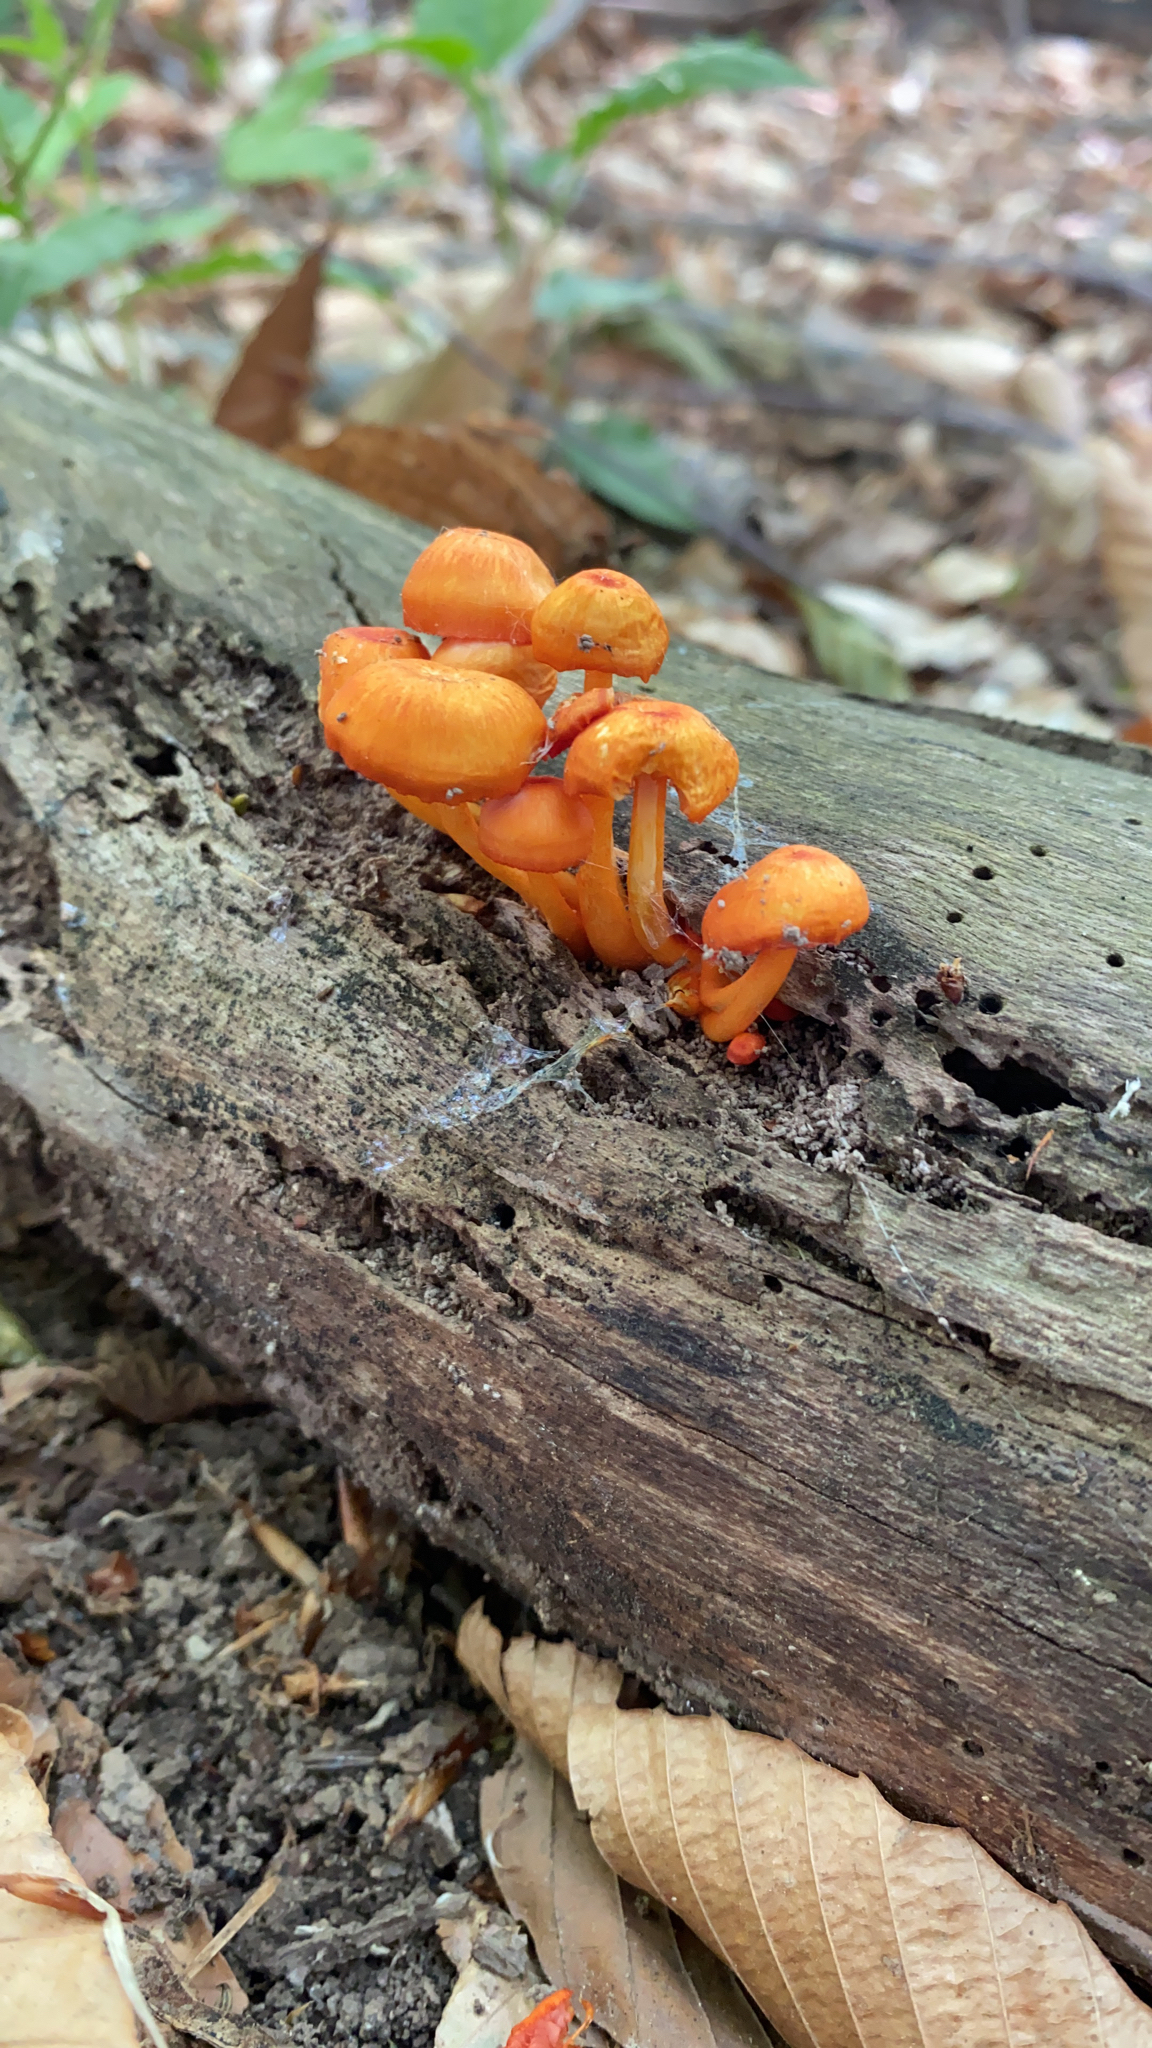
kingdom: Fungi
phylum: Basidiomycota
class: Agaricomycetes
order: Agaricales
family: Mycenaceae
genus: Mycena
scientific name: Mycena leaiana
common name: Orange mycena
